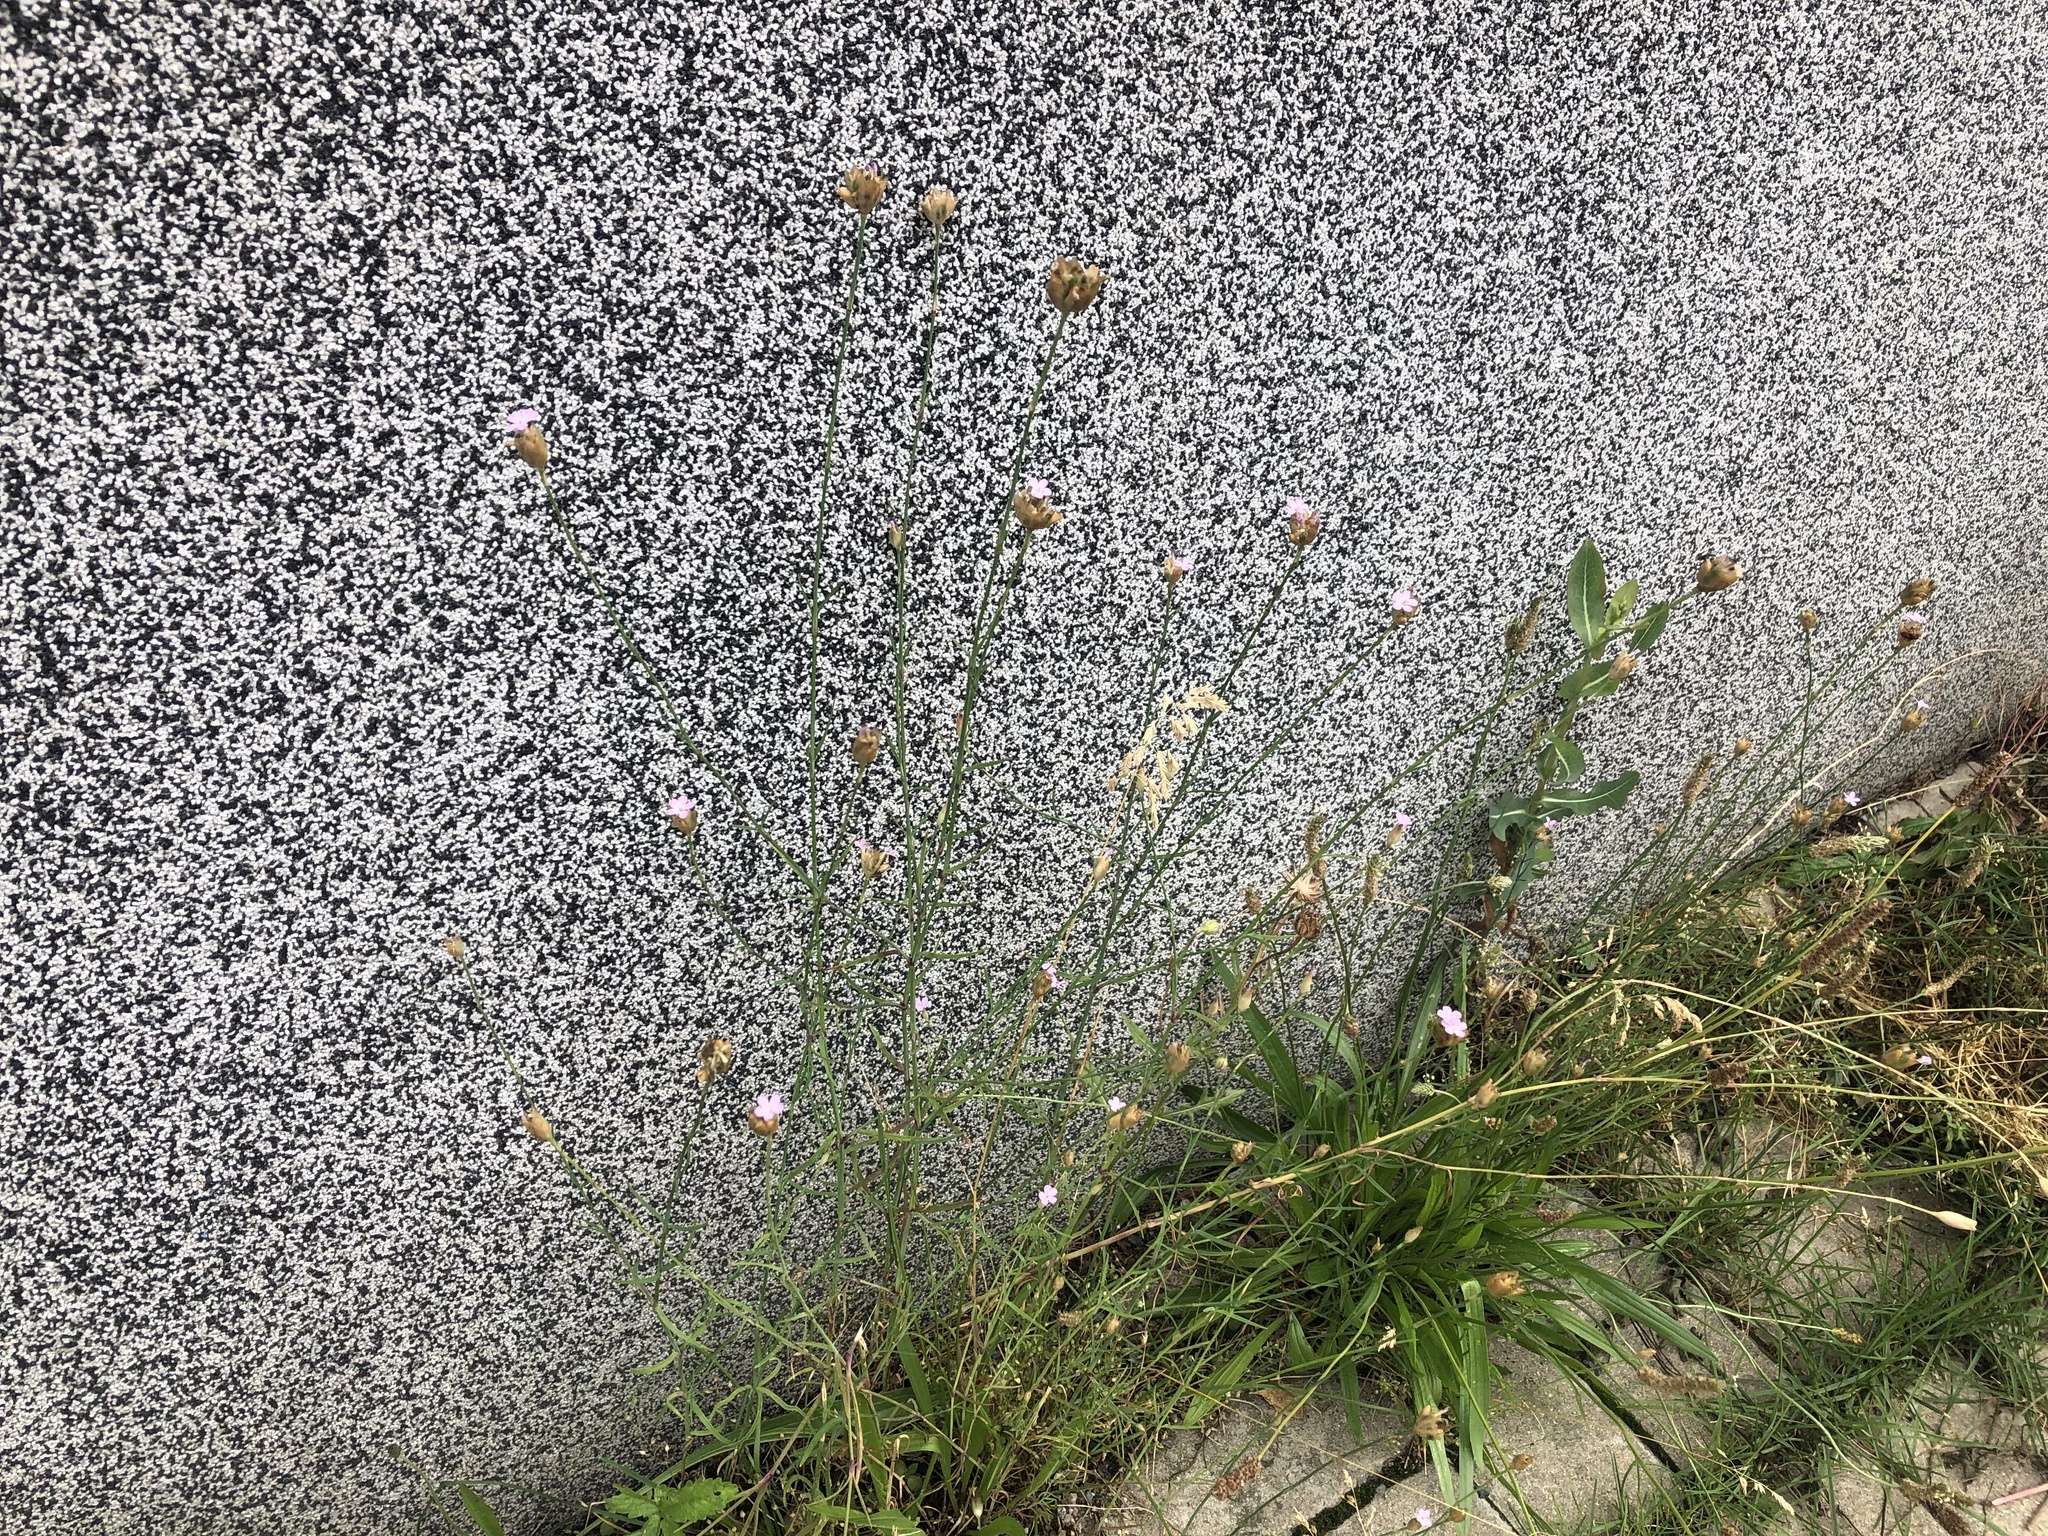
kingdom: Plantae
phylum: Tracheophyta
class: Magnoliopsida
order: Caryophyllales
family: Caryophyllaceae
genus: Petrorhagia
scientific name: Petrorhagia prolifera
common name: Proliferous pink
